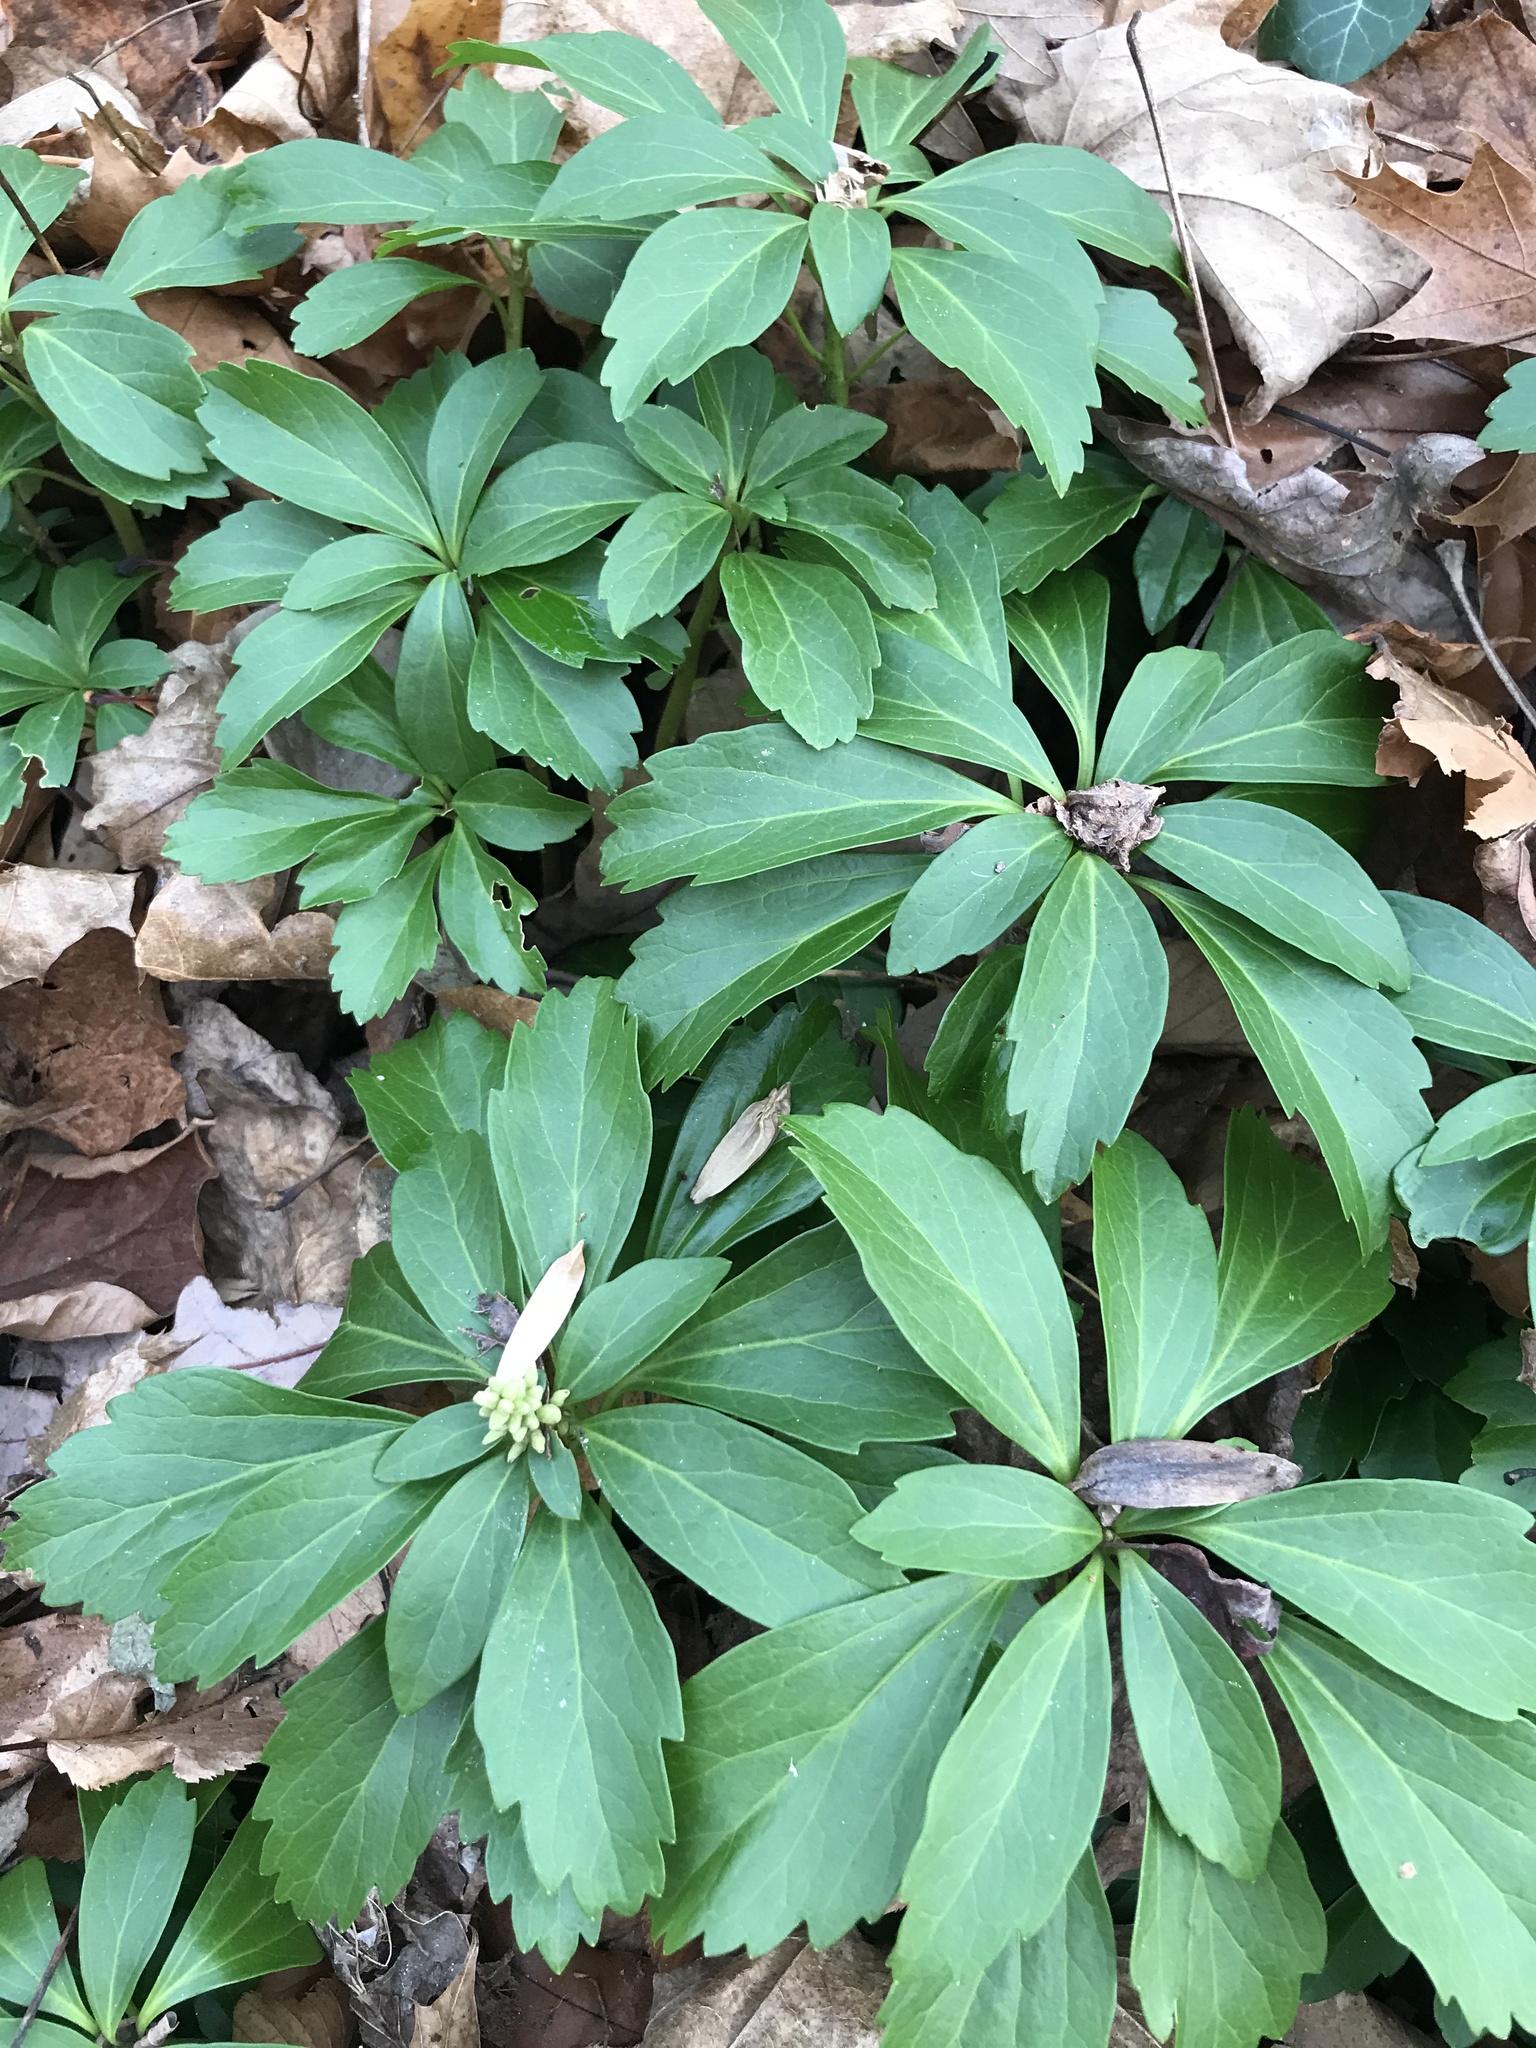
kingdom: Plantae
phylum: Tracheophyta
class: Magnoliopsida
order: Buxales
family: Buxaceae
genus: Pachysandra
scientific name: Pachysandra terminalis
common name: Japanese pachysandra
